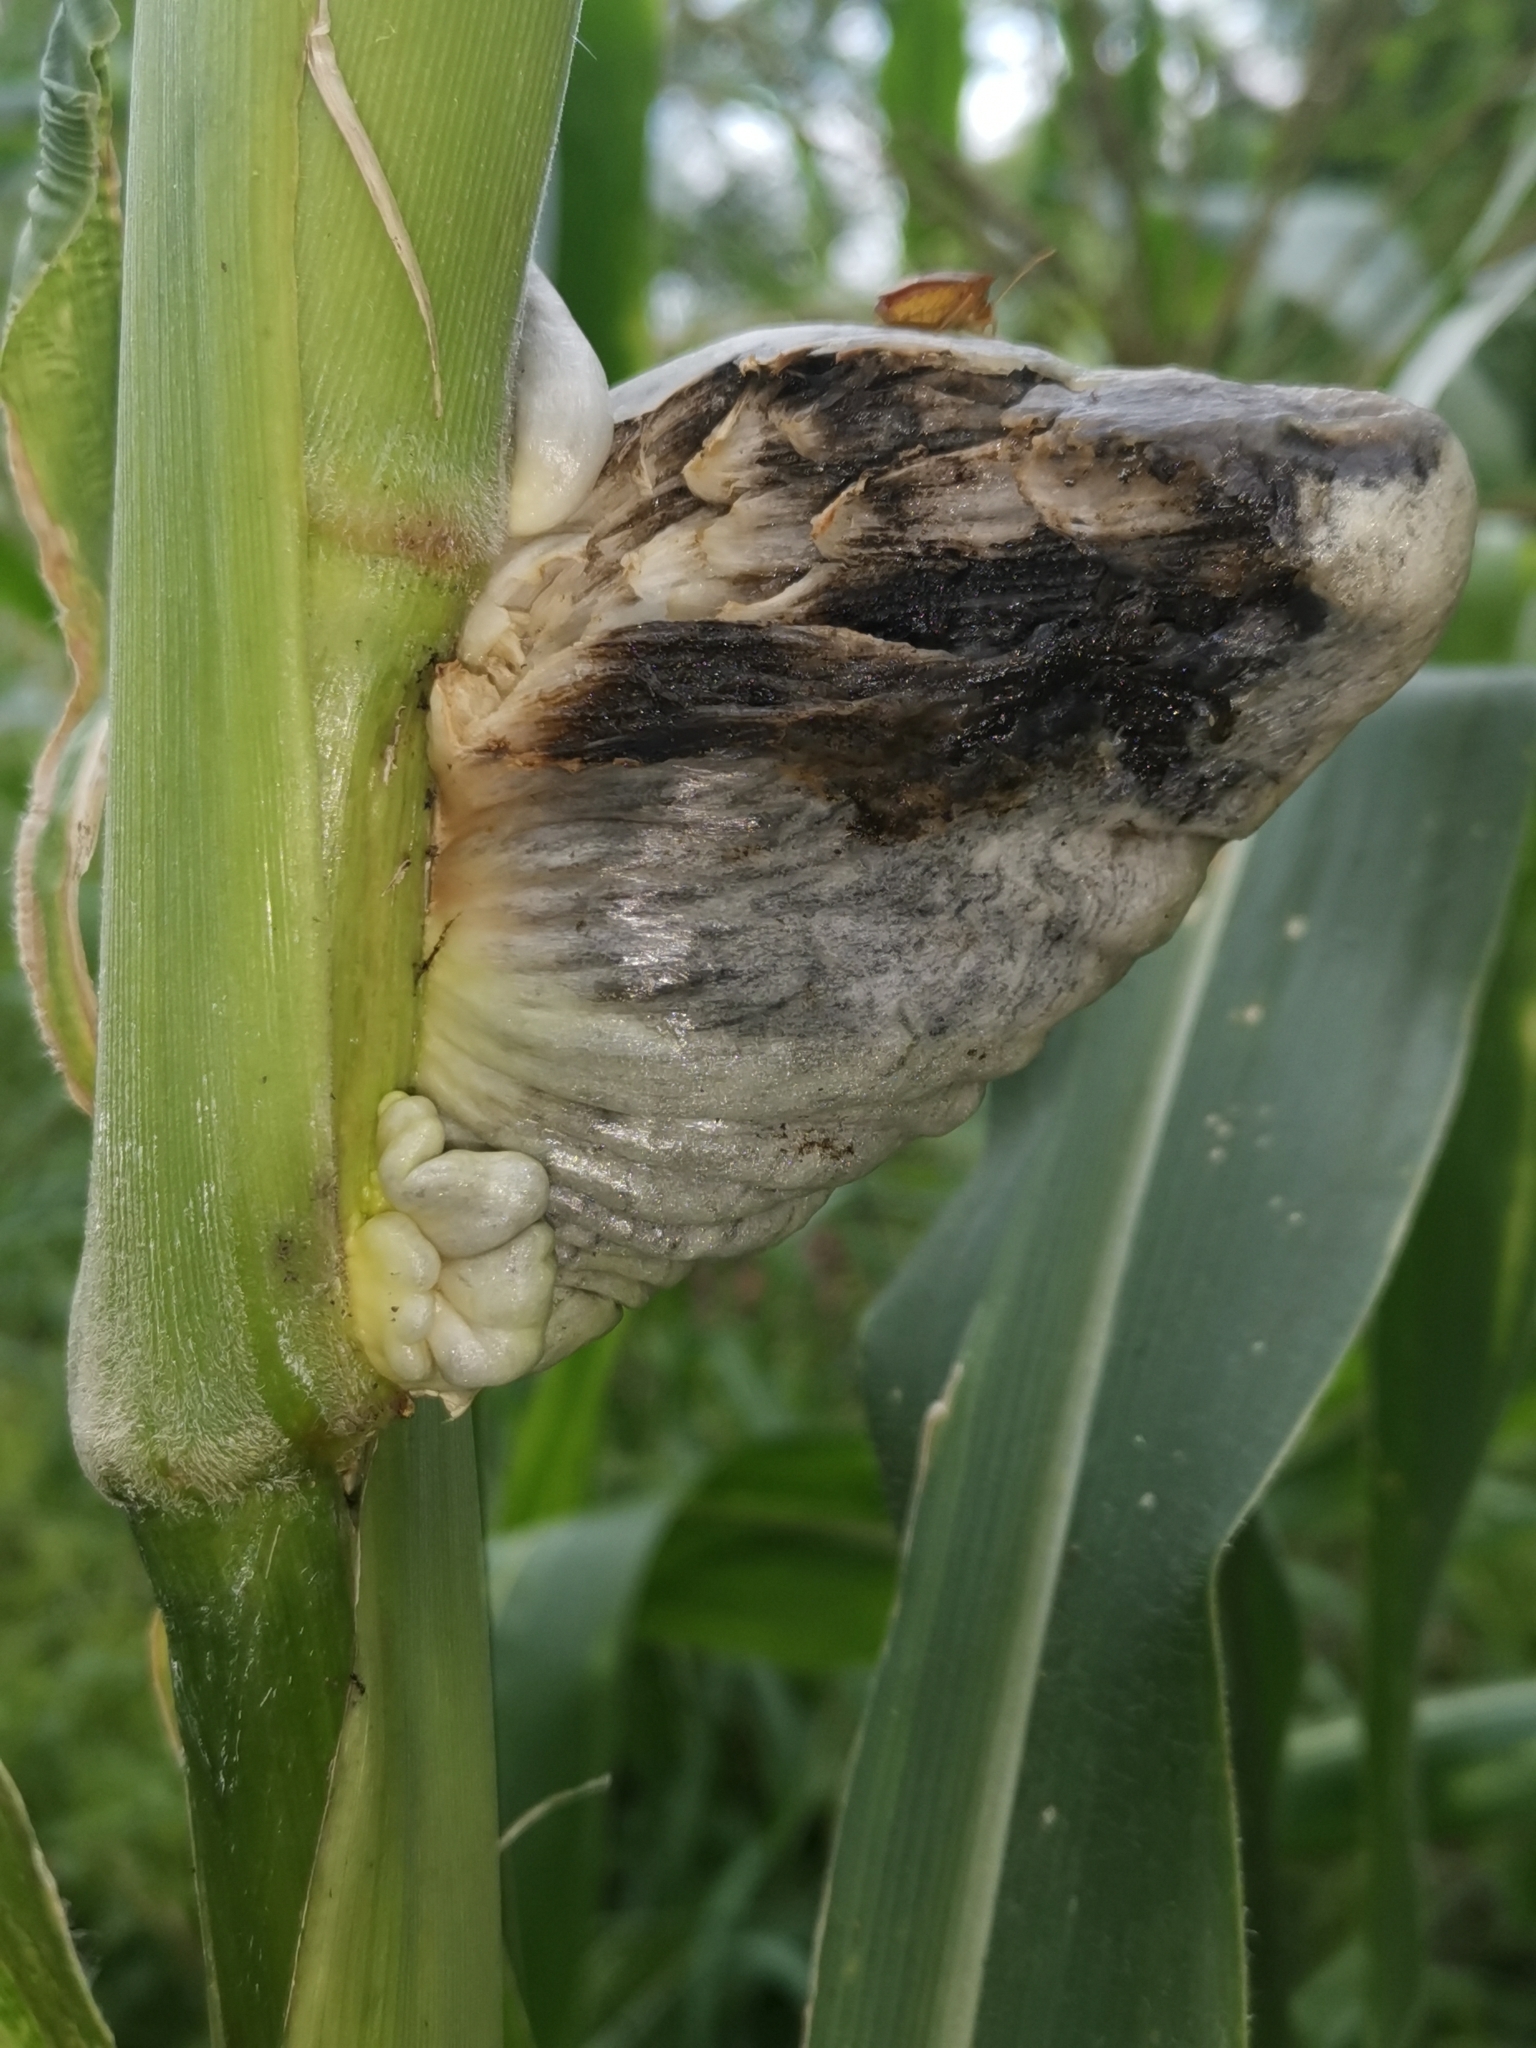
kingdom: Fungi
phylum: Basidiomycota
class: Ustilaginomycetes
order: Ustilaginales
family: Ustilaginaceae
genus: Mycosarcoma
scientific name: Mycosarcoma maydis
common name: Corn smut
